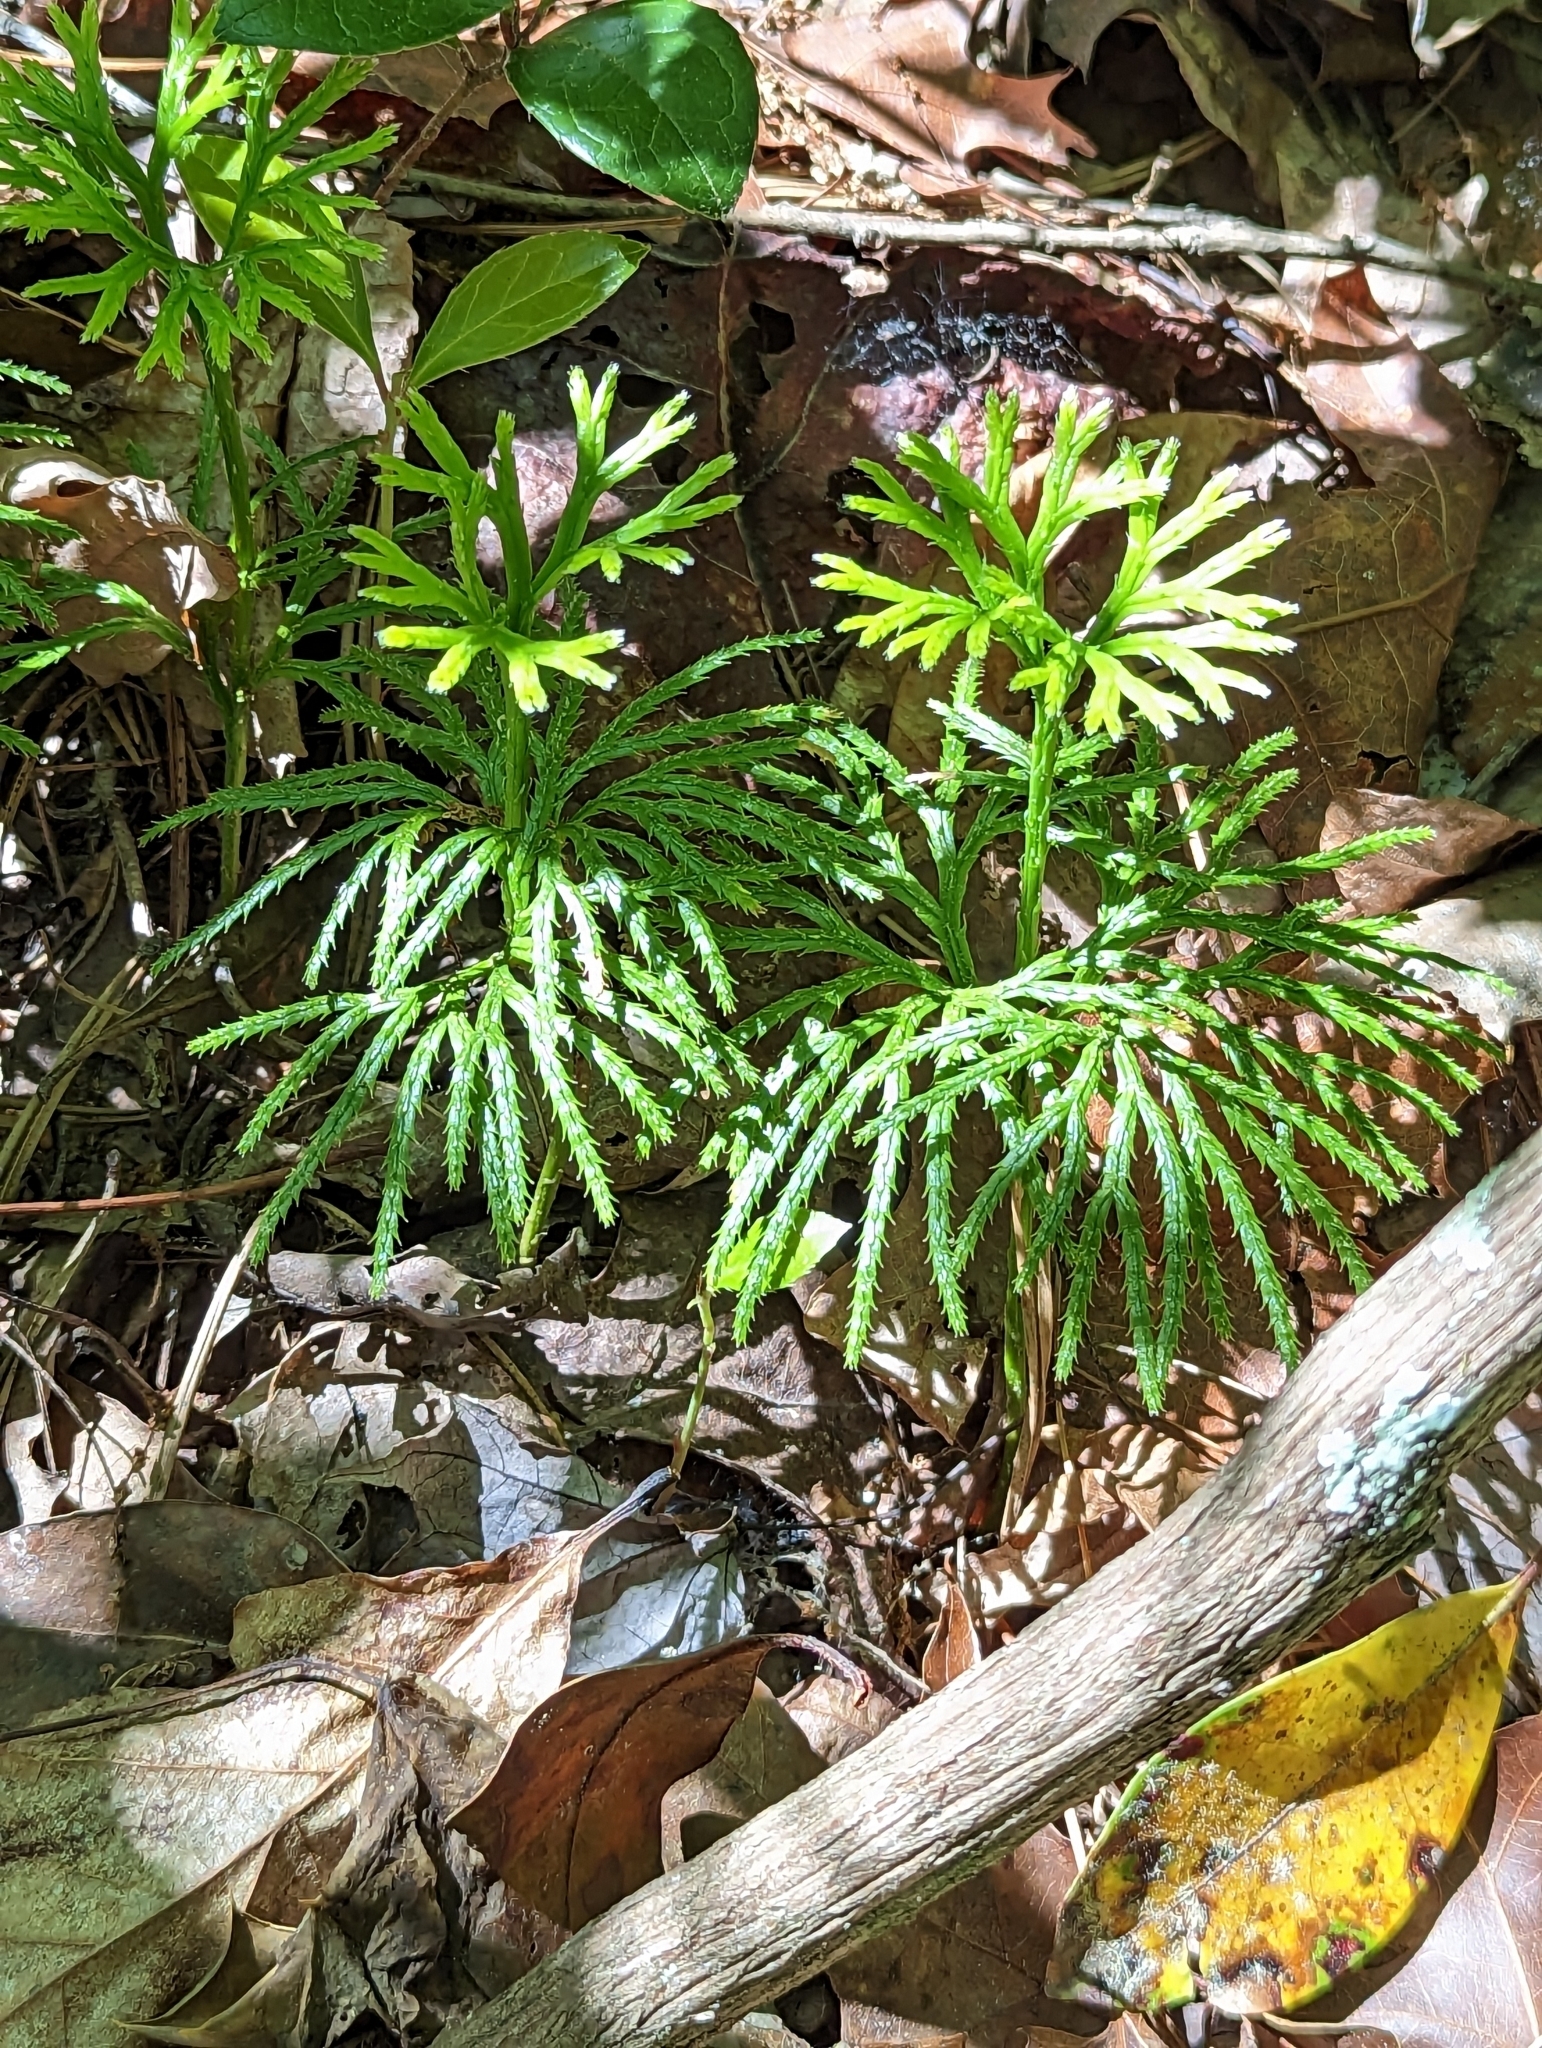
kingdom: Plantae
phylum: Tracheophyta
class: Lycopodiopsida
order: Lycopodiales
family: Lycopodiaceae
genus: Diphasiastrum
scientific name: Diphasiastrum digitatum
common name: Southern running-pine
